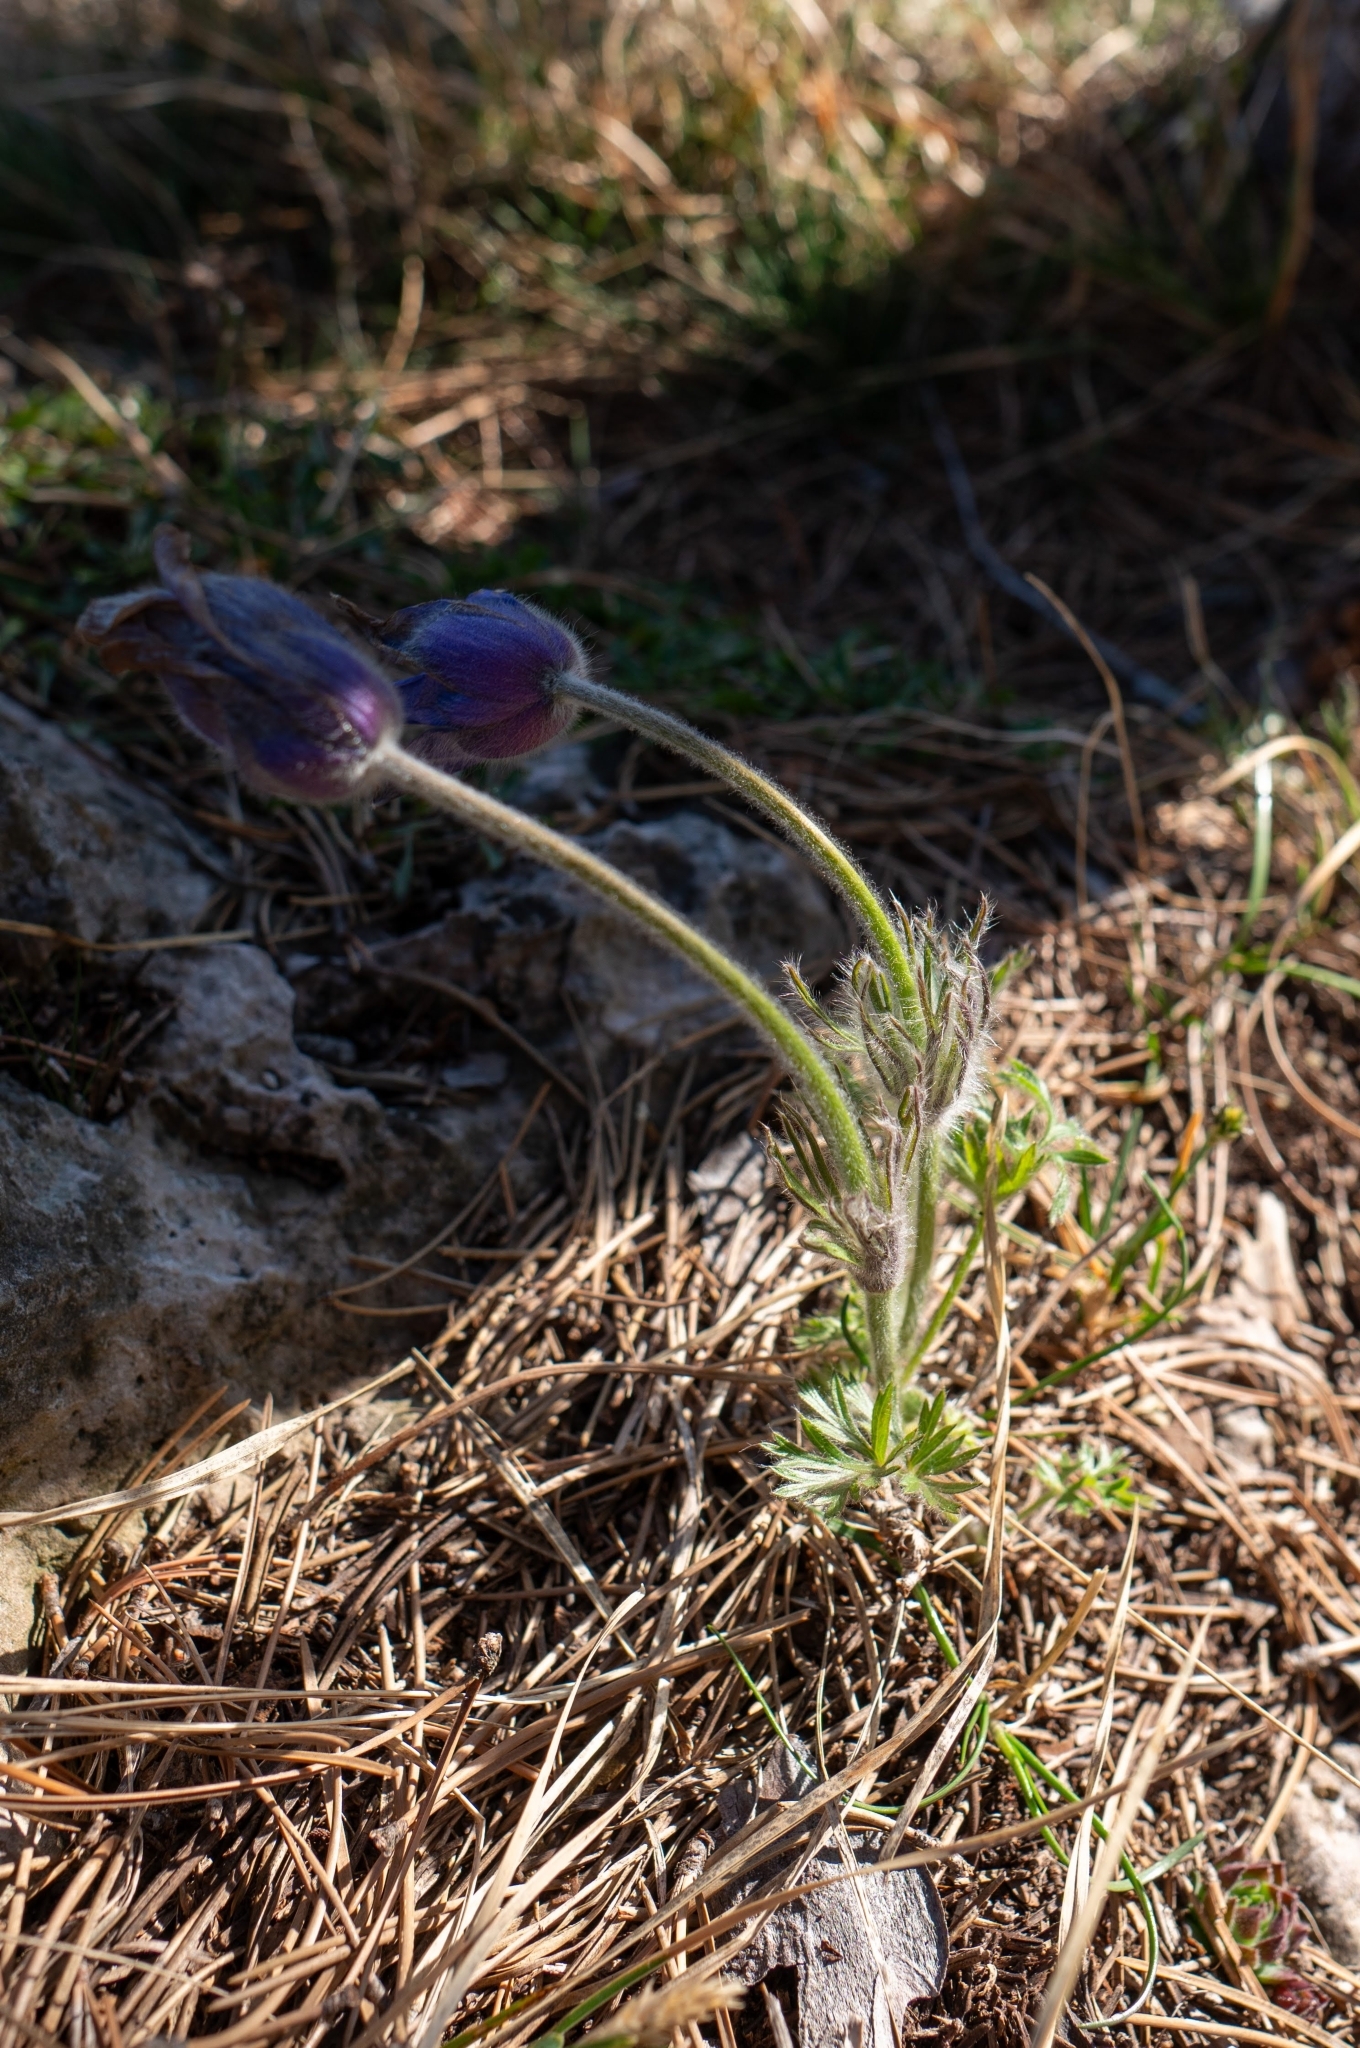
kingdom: Plantae
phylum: Tracheophyta
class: Magnoliopsida
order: Ranunculales
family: Ranunculaceae
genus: Pulsatilla
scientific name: Pulsatilla grandis
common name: Greater pasque flower
